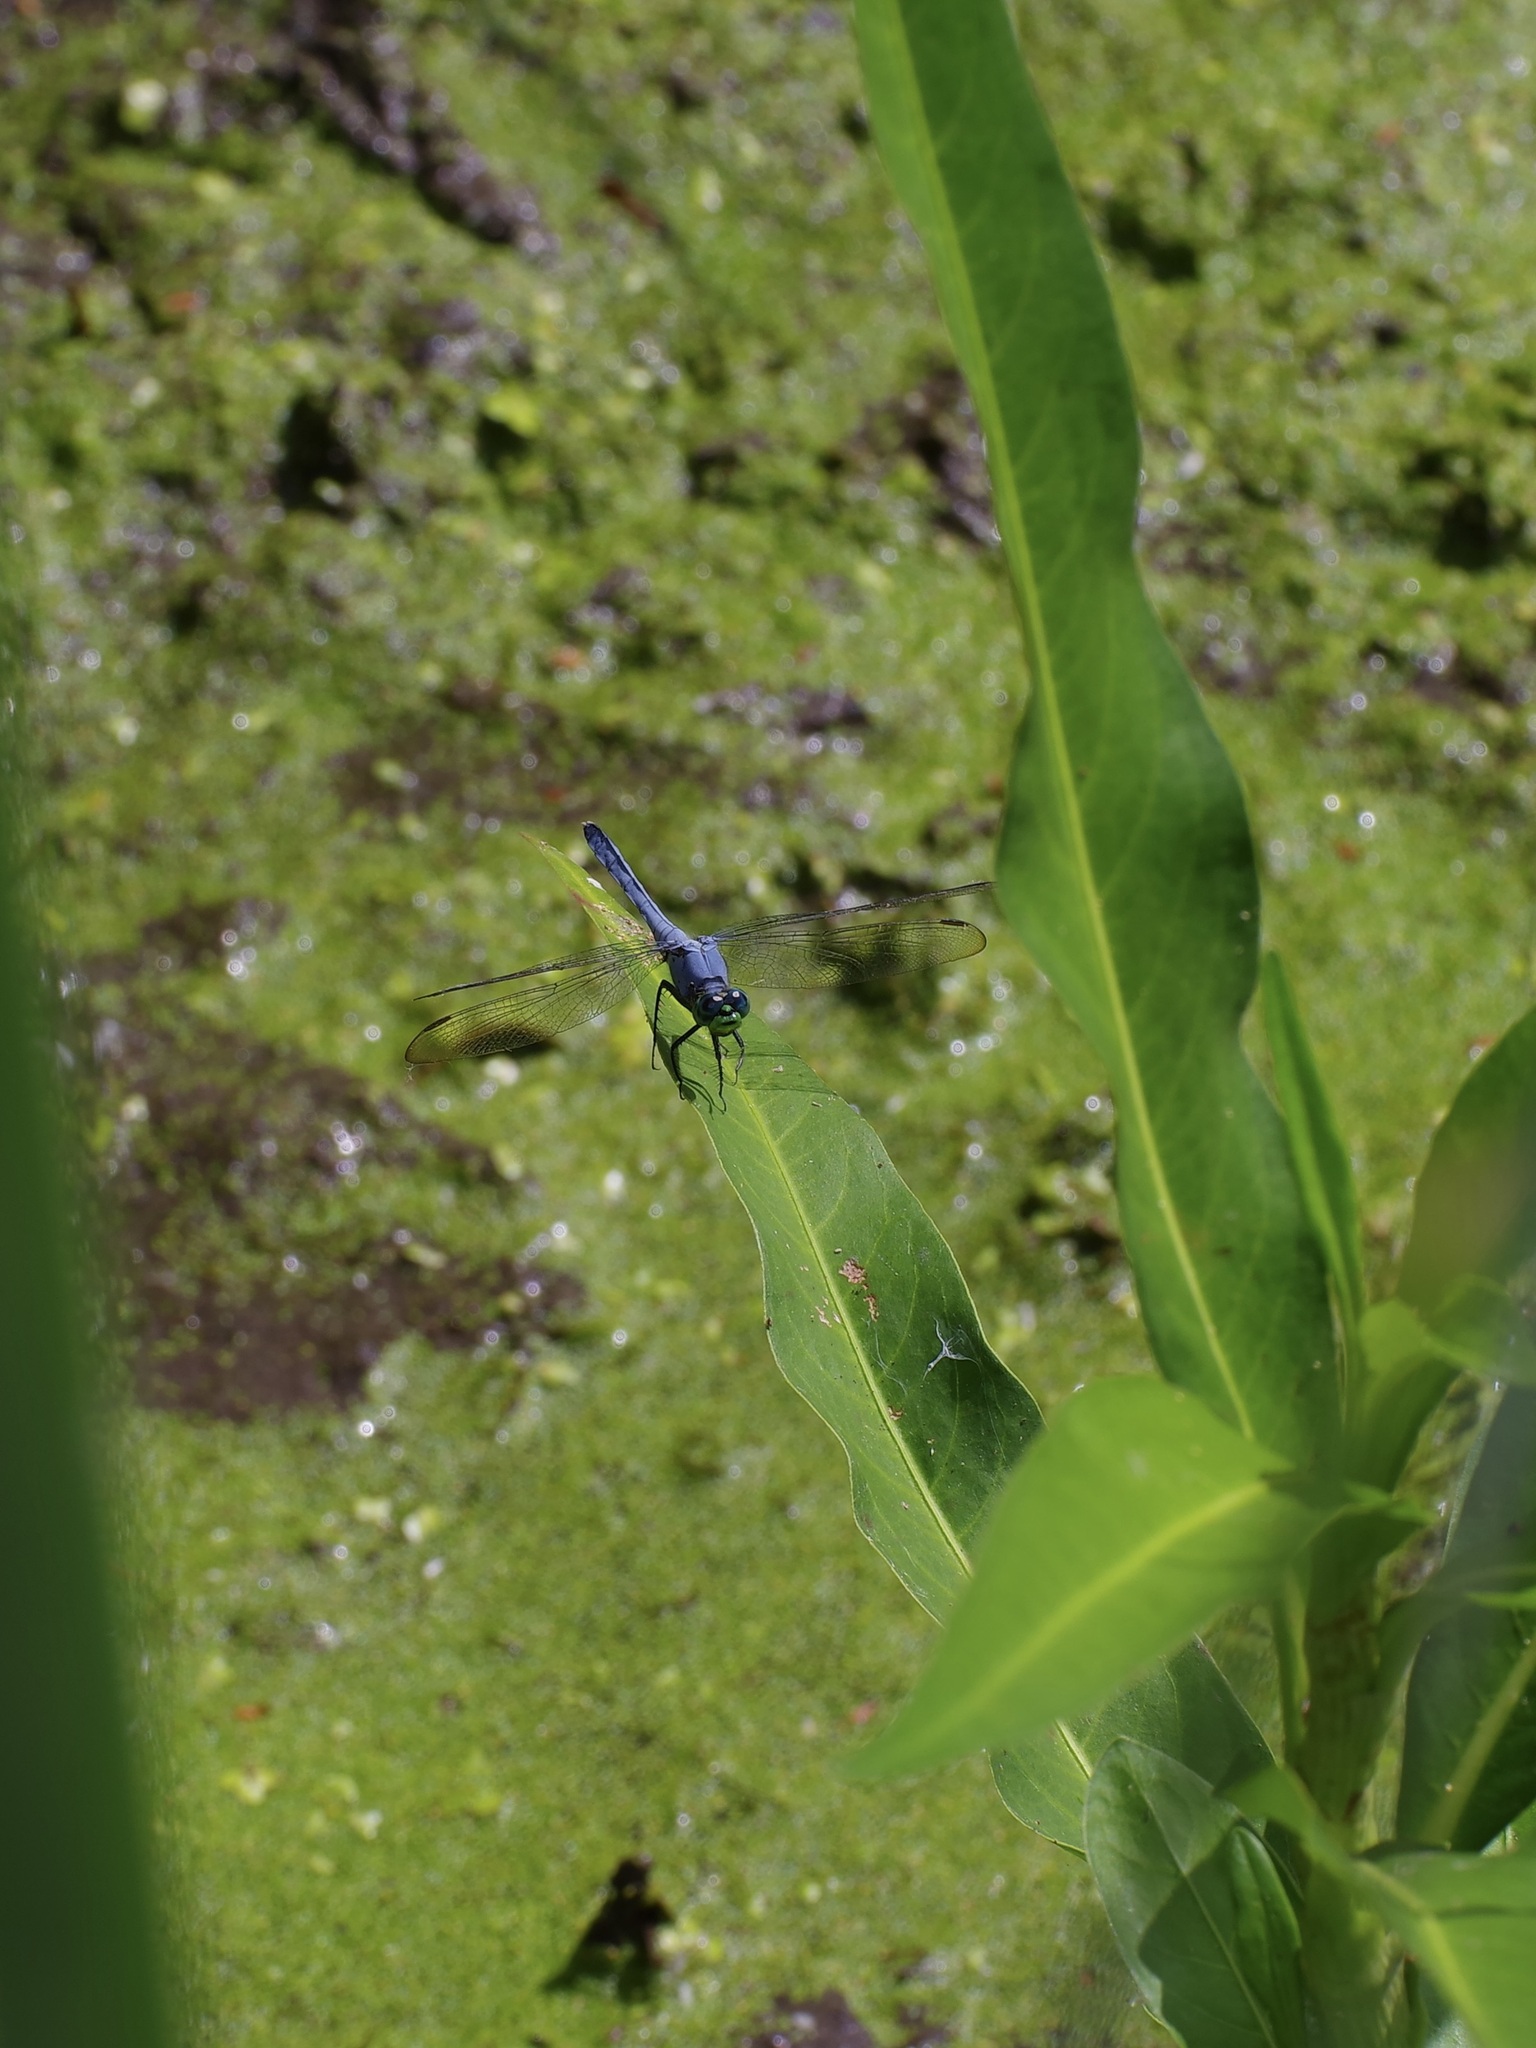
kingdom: Animalia
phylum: Arthropoda
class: Insecta
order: Odonata
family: Libellulidae
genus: Erythemis
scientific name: Erythemis simplicicollis
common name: Eastern pondhawk
